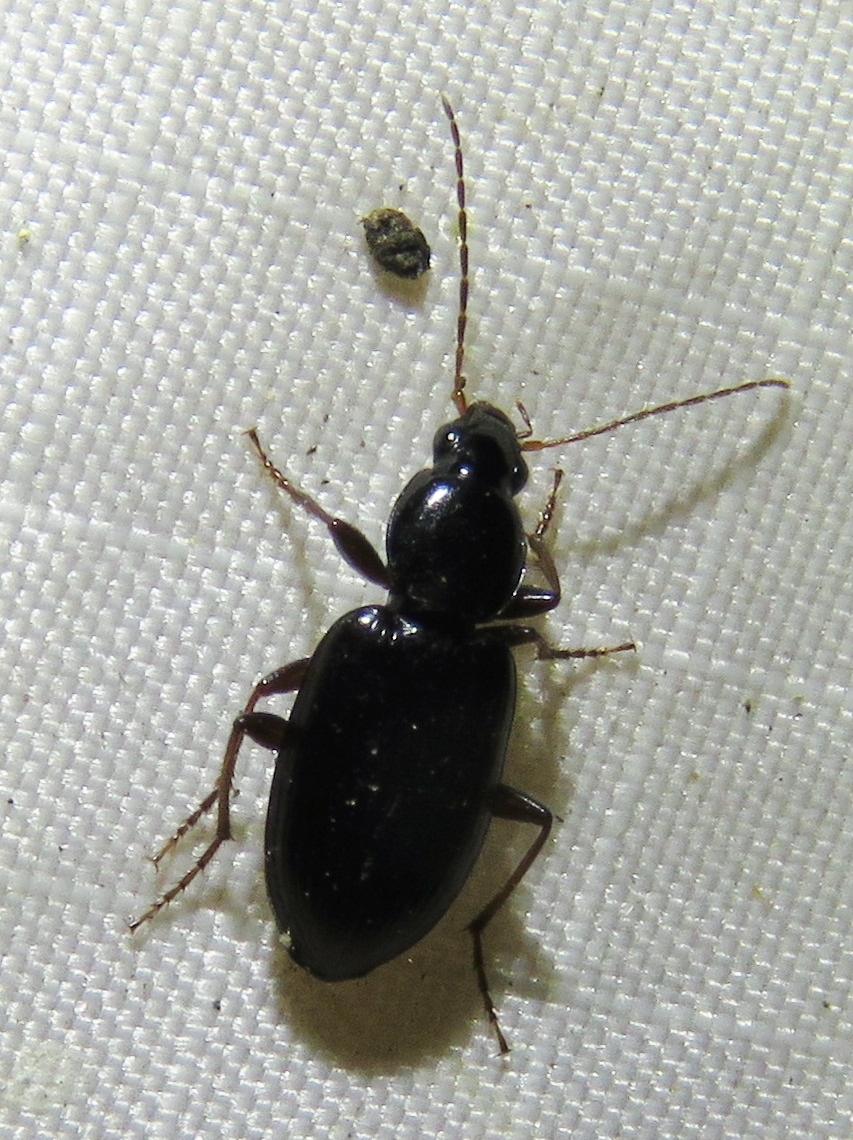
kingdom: Animalia
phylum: Arthropoda
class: Insecta
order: Coleoptera
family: Carabidae
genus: Agonum
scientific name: Agonum punctiforme
